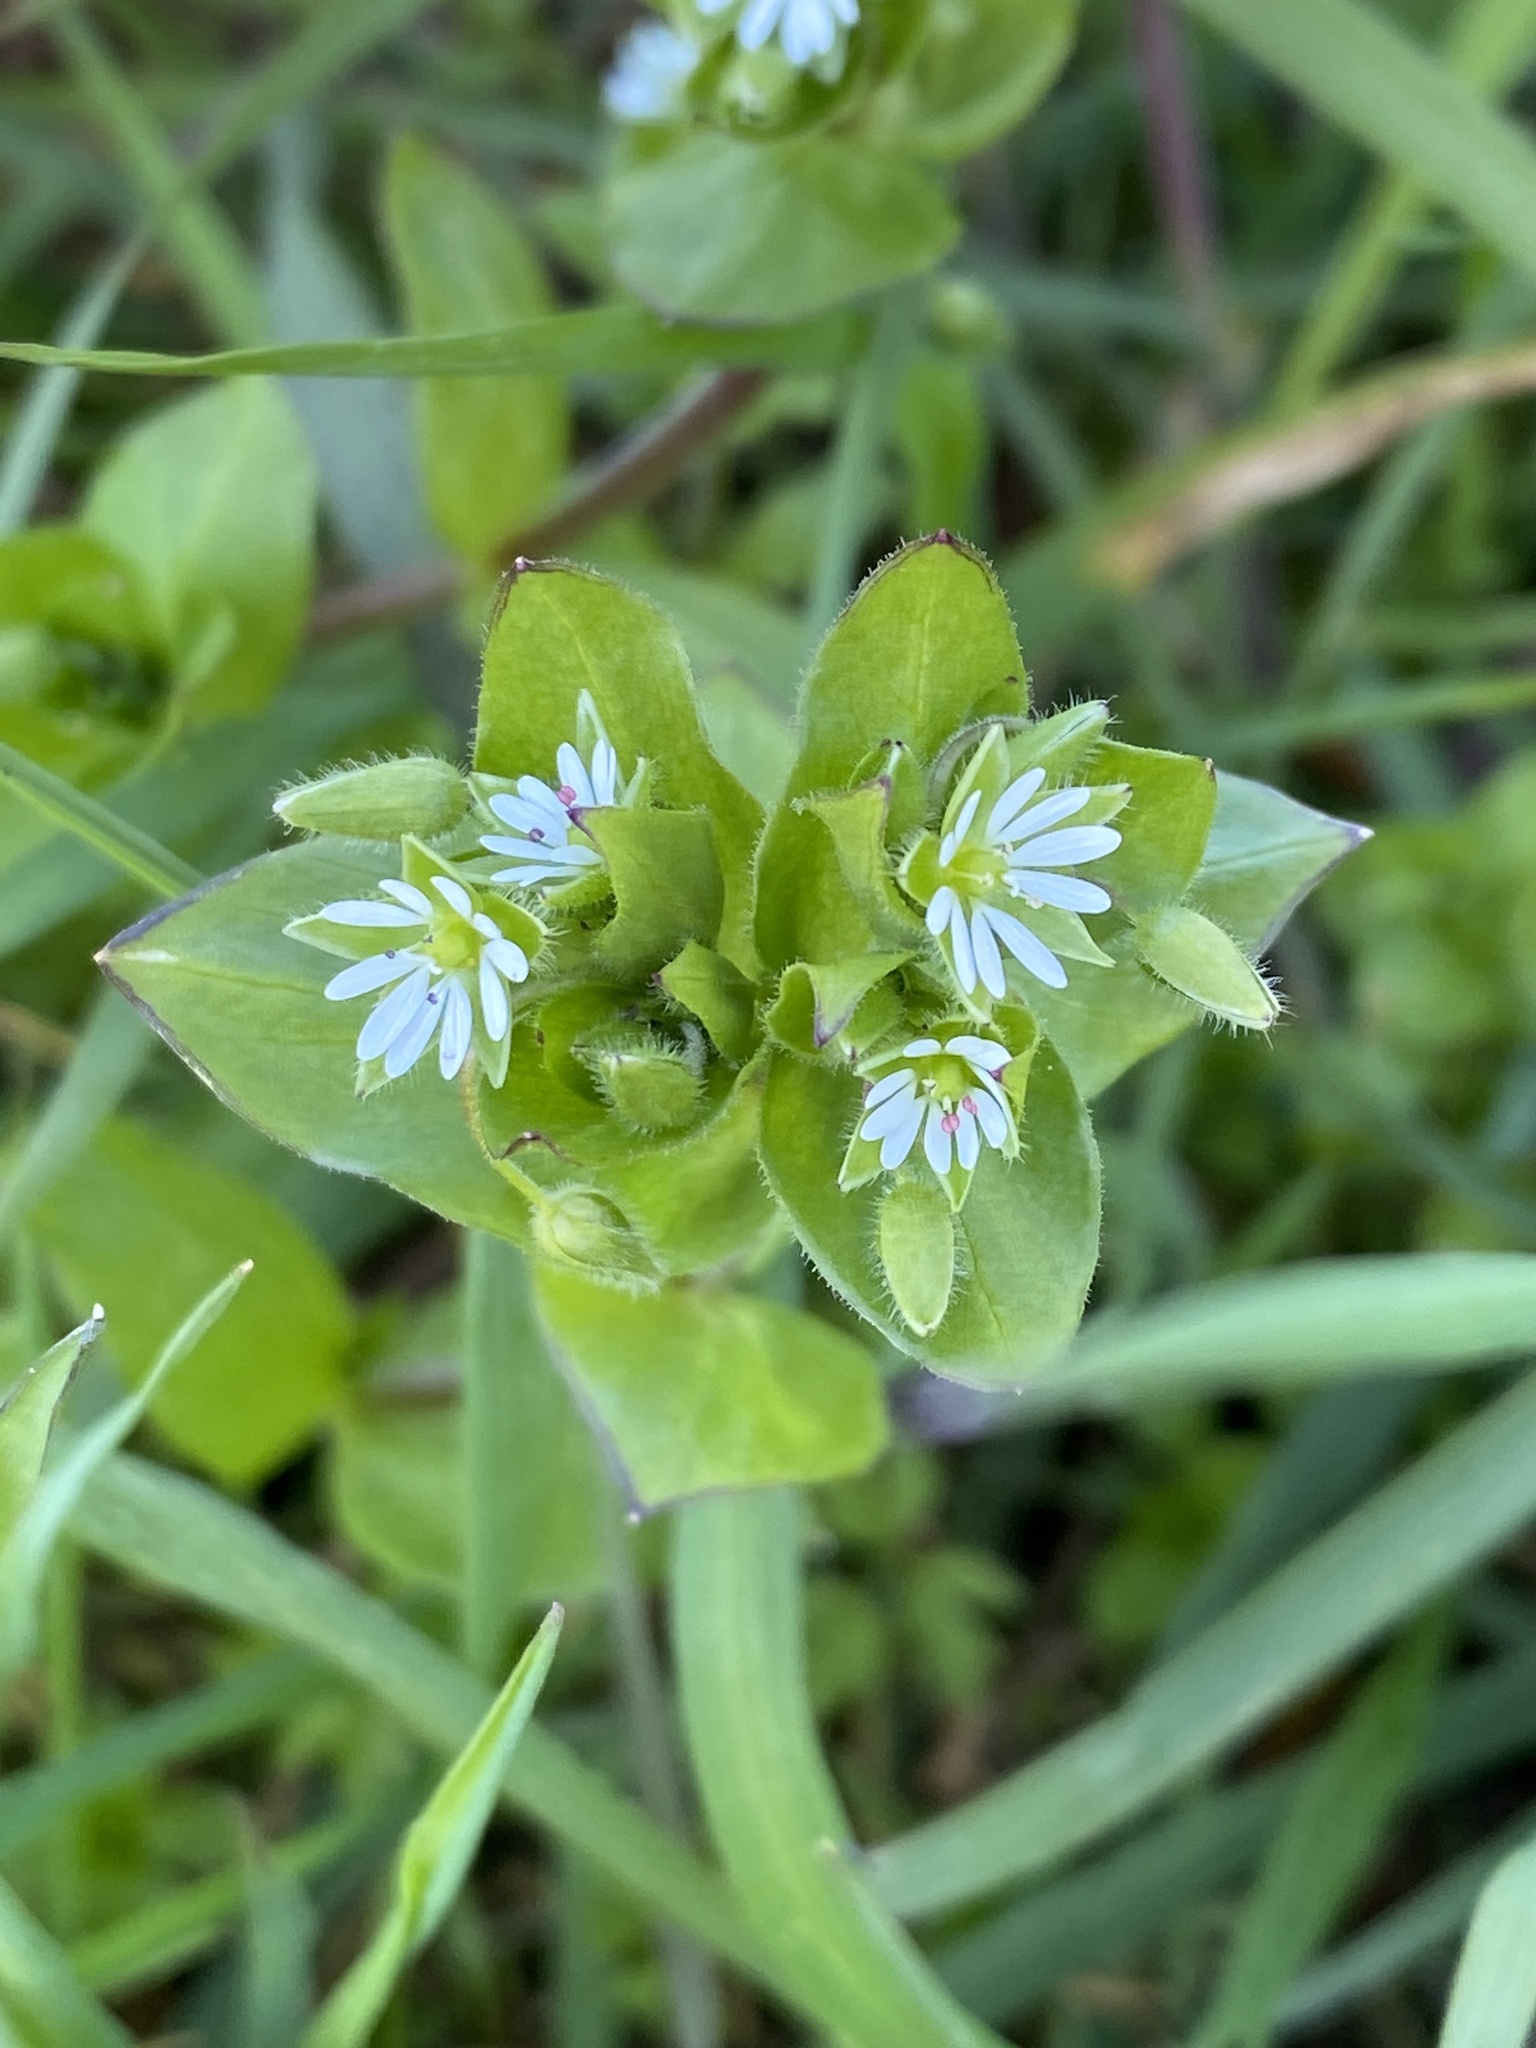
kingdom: Plantae
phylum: Tracheophyta
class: Magnoliopsida
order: Caryophyllales
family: Caryophyllaceae
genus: Stellaria
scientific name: Stellaria media
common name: Common chickweed
